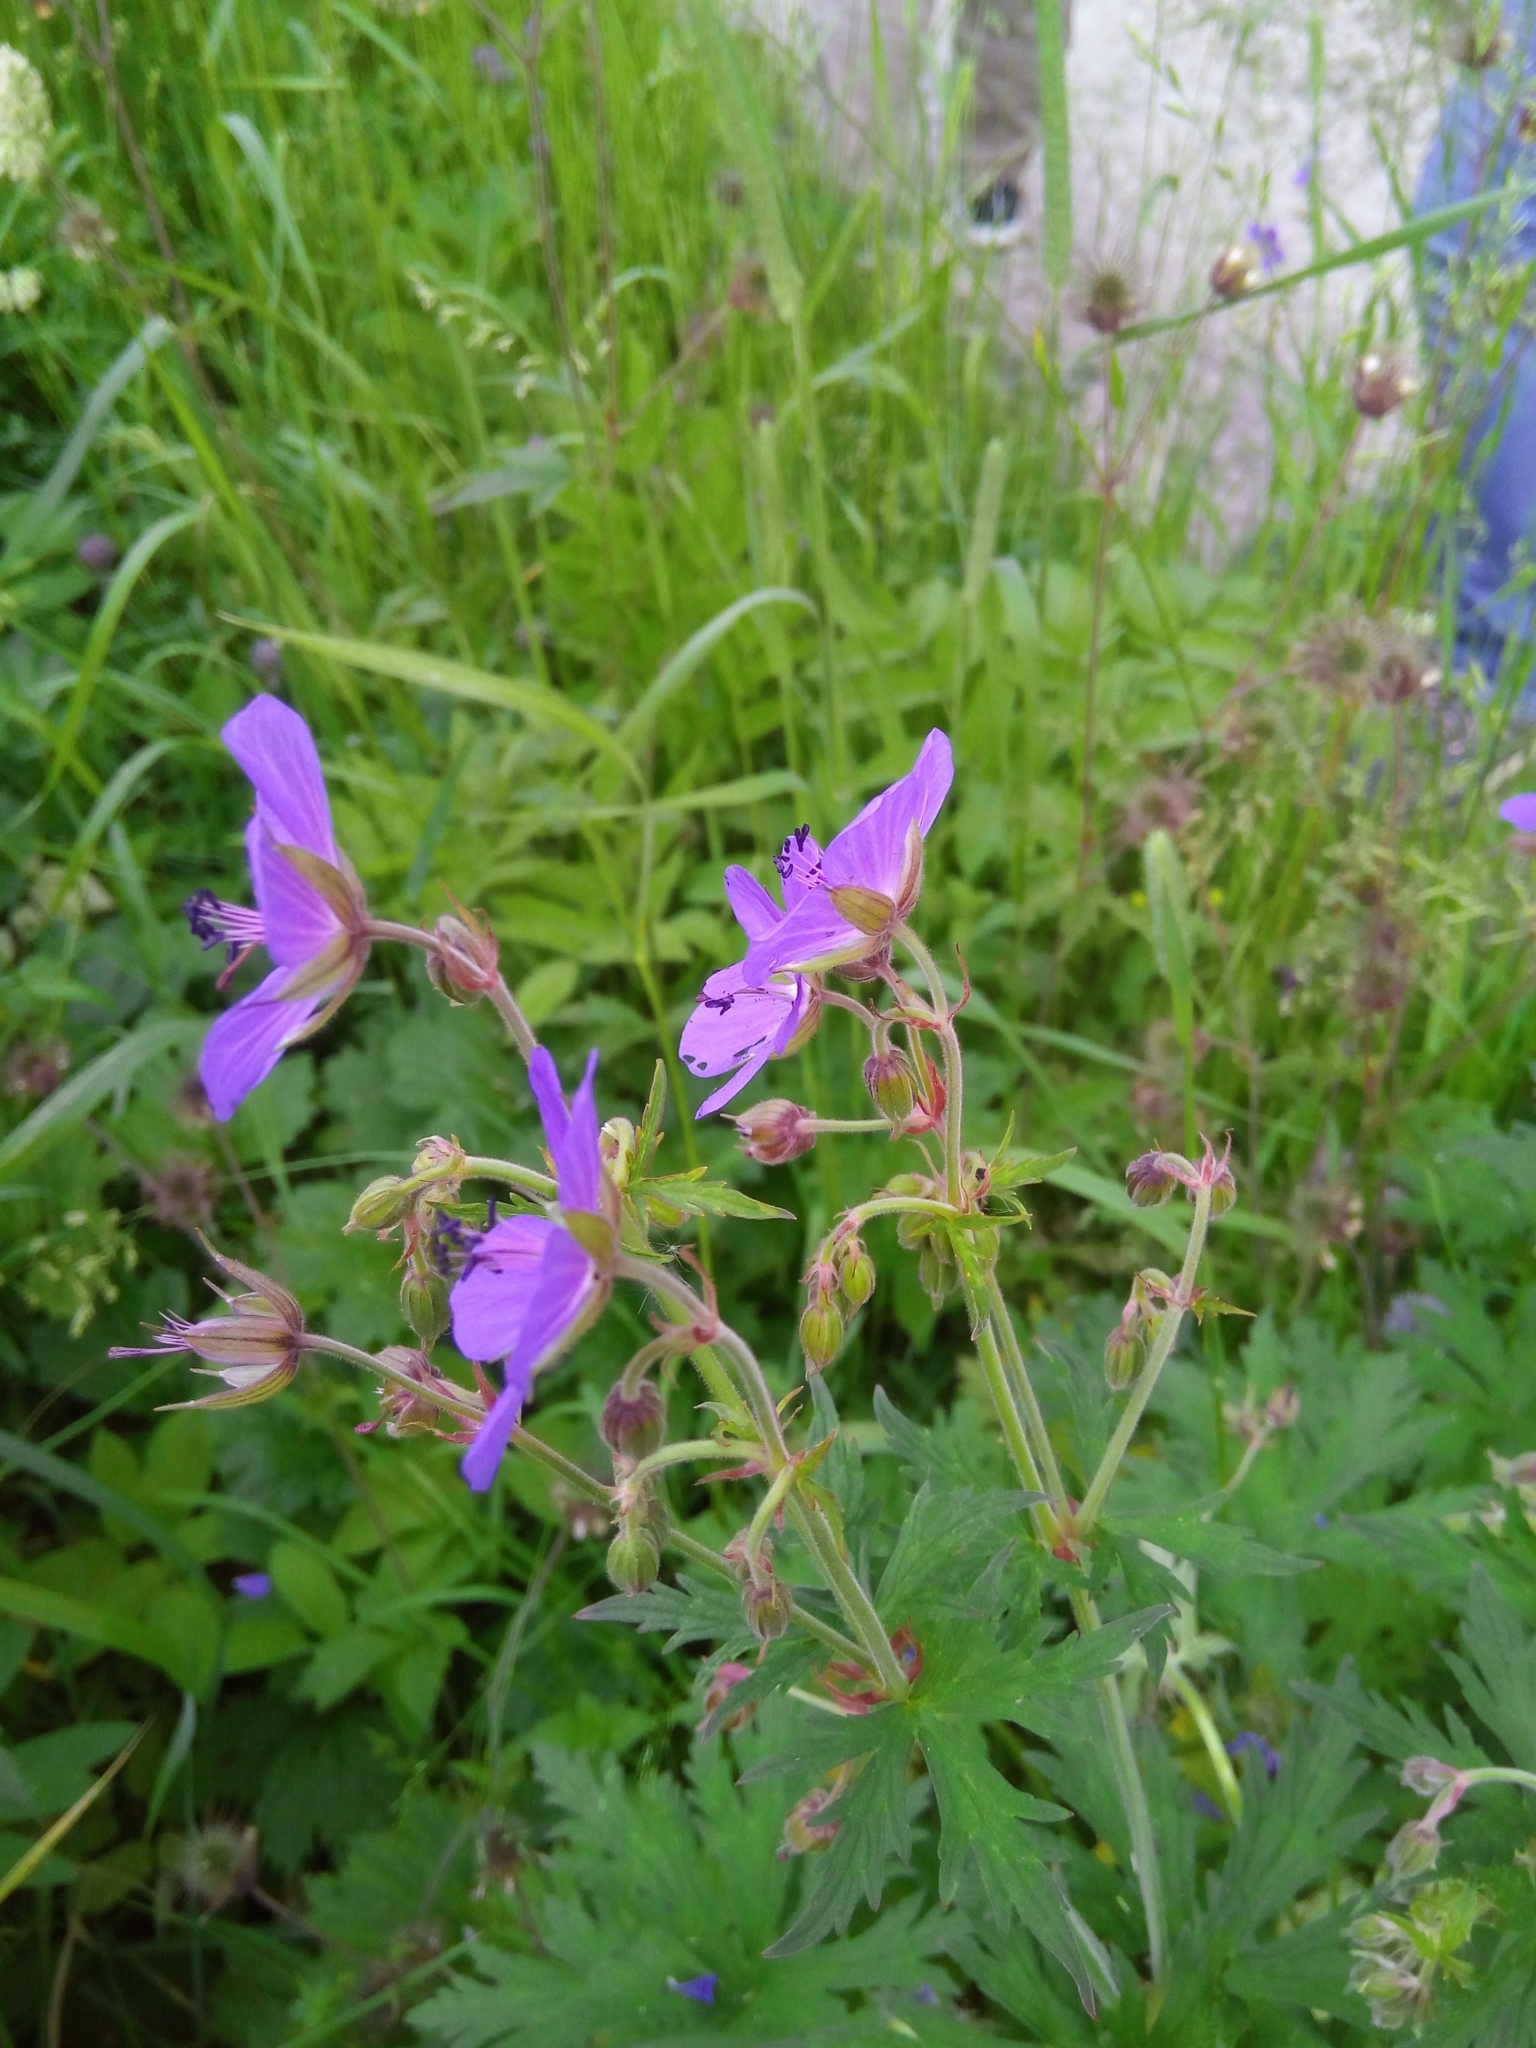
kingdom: Plantae
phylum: Tracheophyta
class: Magnoliopsida
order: Geraniales
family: Geraniaceae
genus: Geranium
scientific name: Geranium pratense
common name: Meadow crane's-bill
